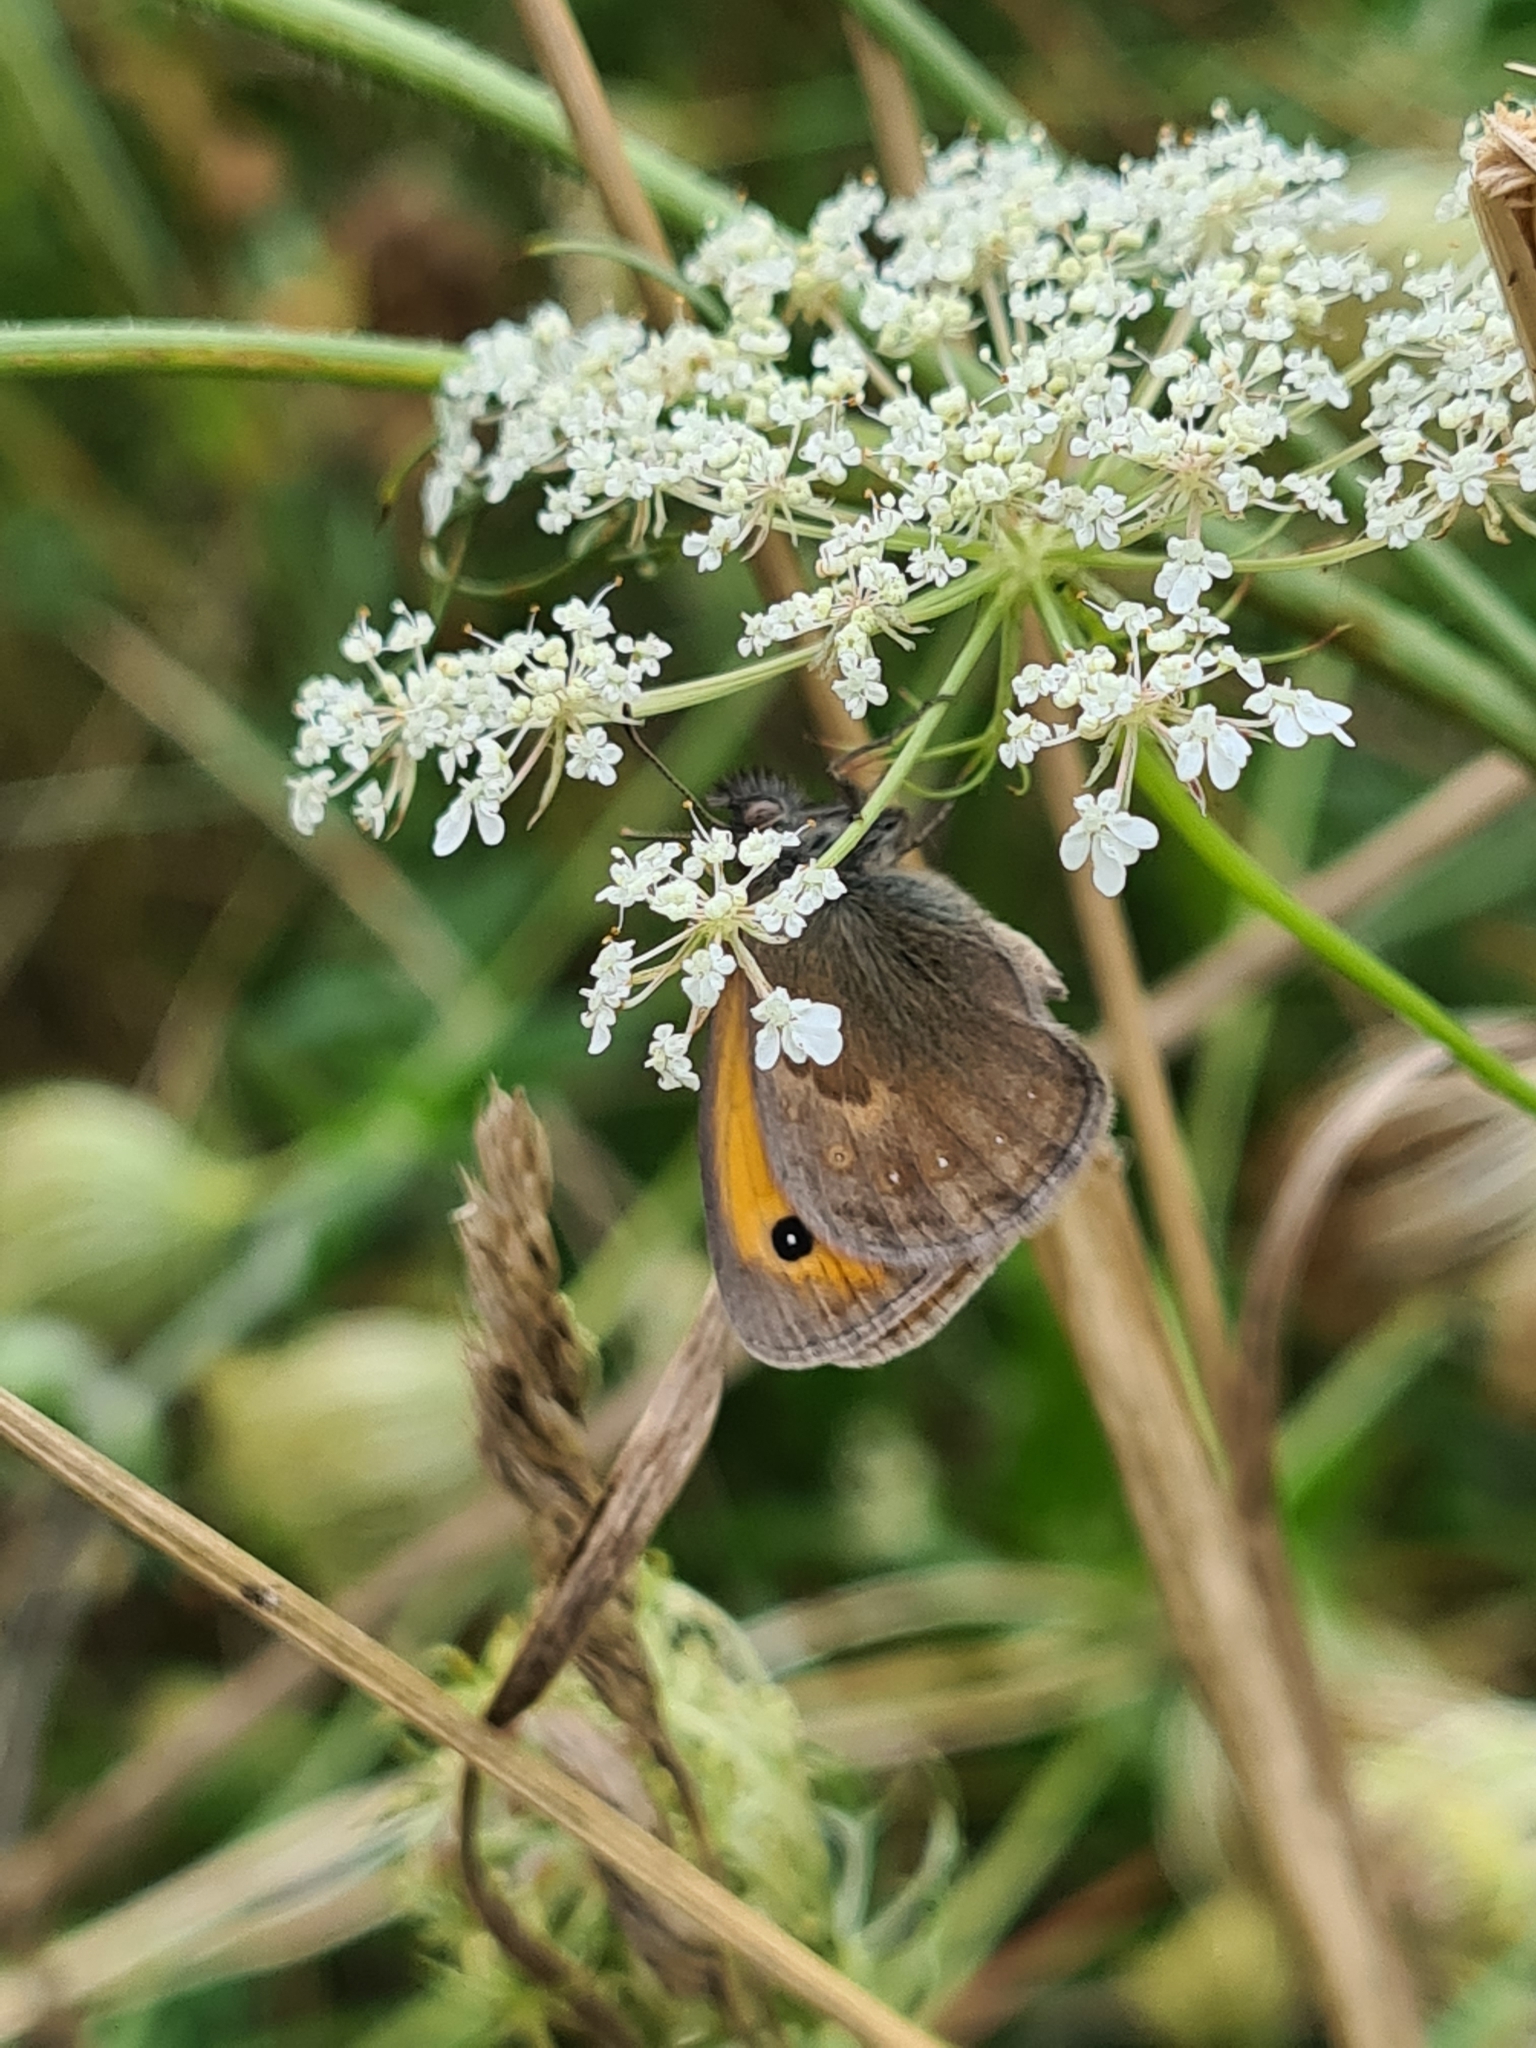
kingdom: Animalia
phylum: Arthropoda
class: Insecta
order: Lepidoptera
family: Nymphalidae
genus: Coenonympha
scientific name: Coenonympha pamphilus
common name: Small heath
